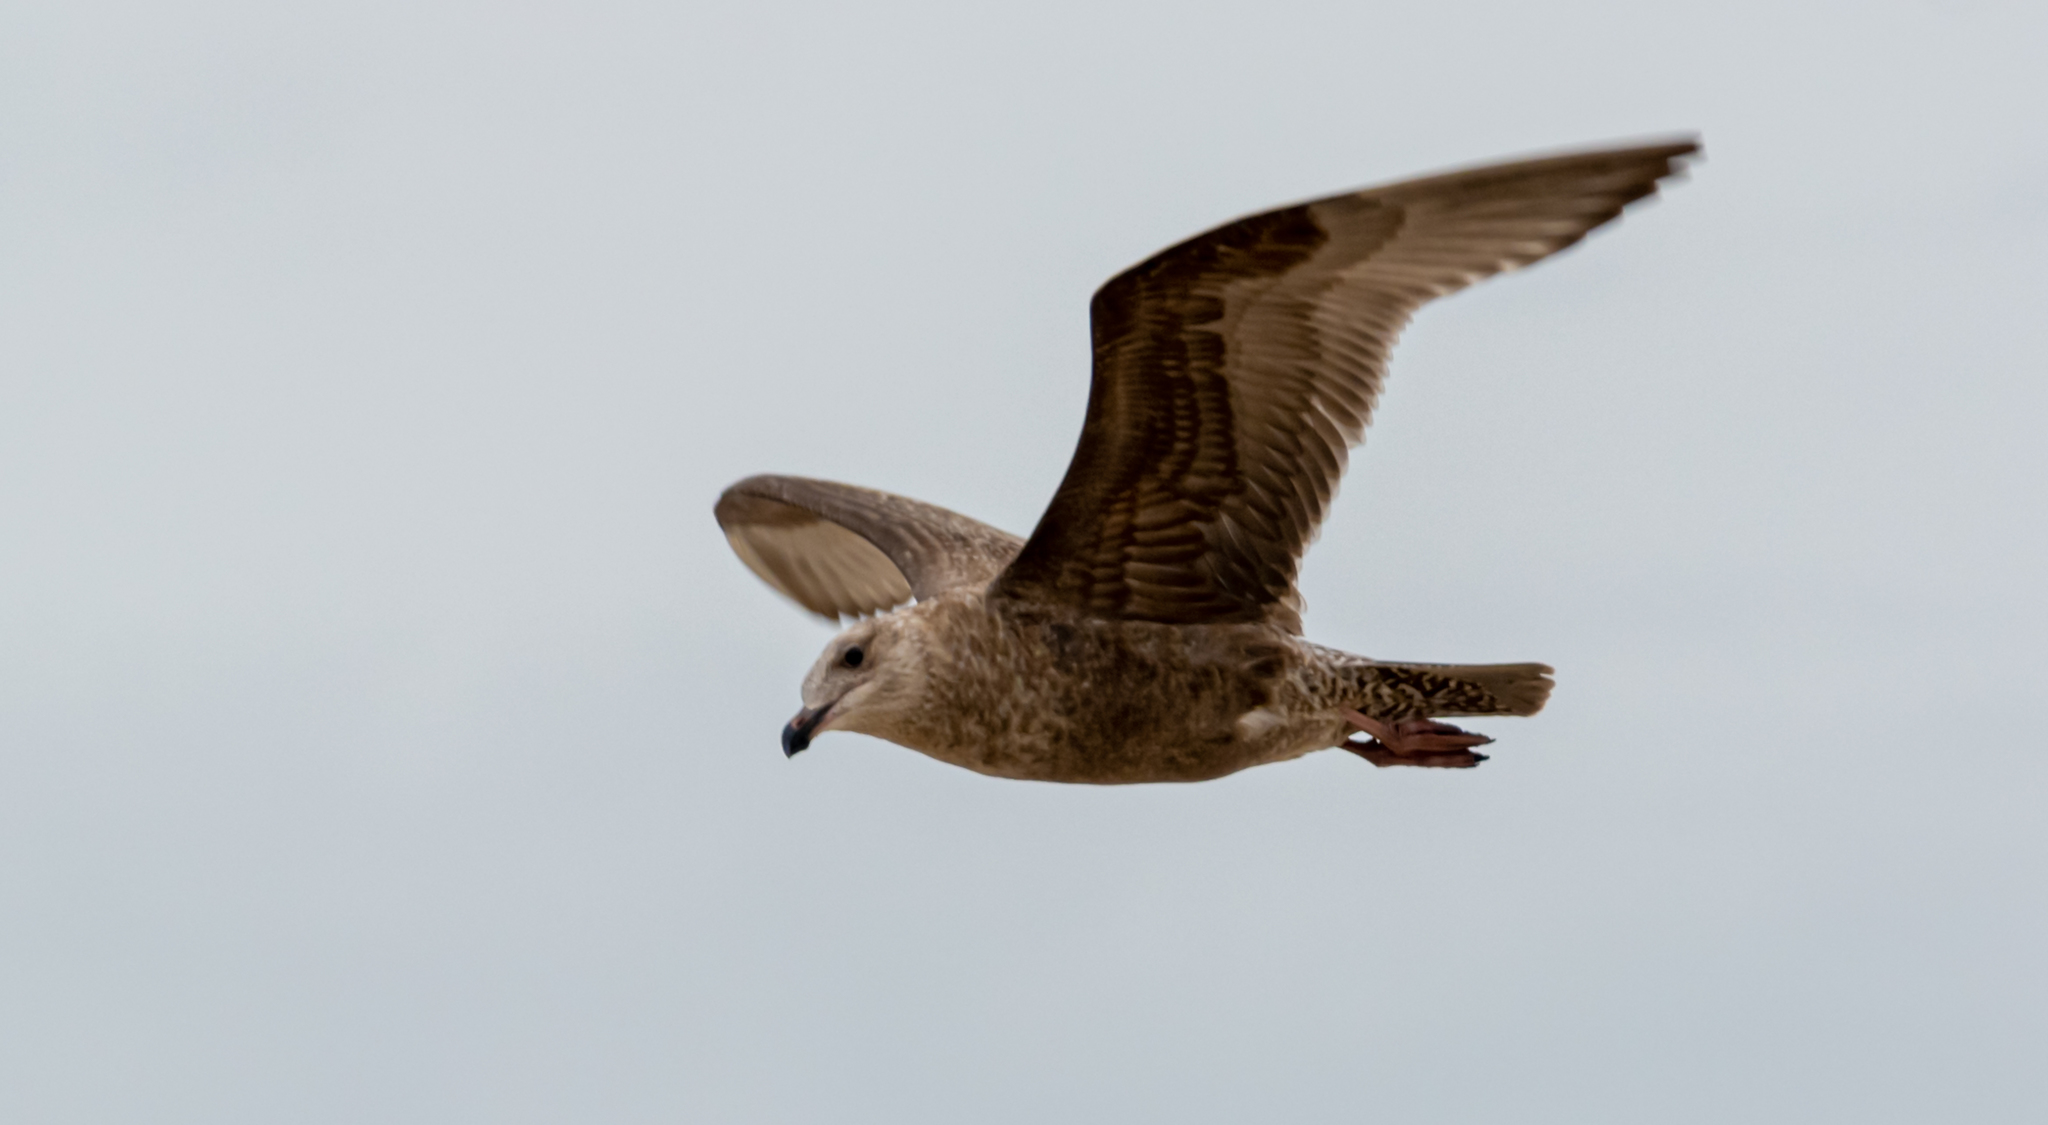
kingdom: Animalia
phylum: Chordata
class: Aves
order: Charadriiformes
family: Laridae
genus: Larus
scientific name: Larus argentatus
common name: Herring gull
